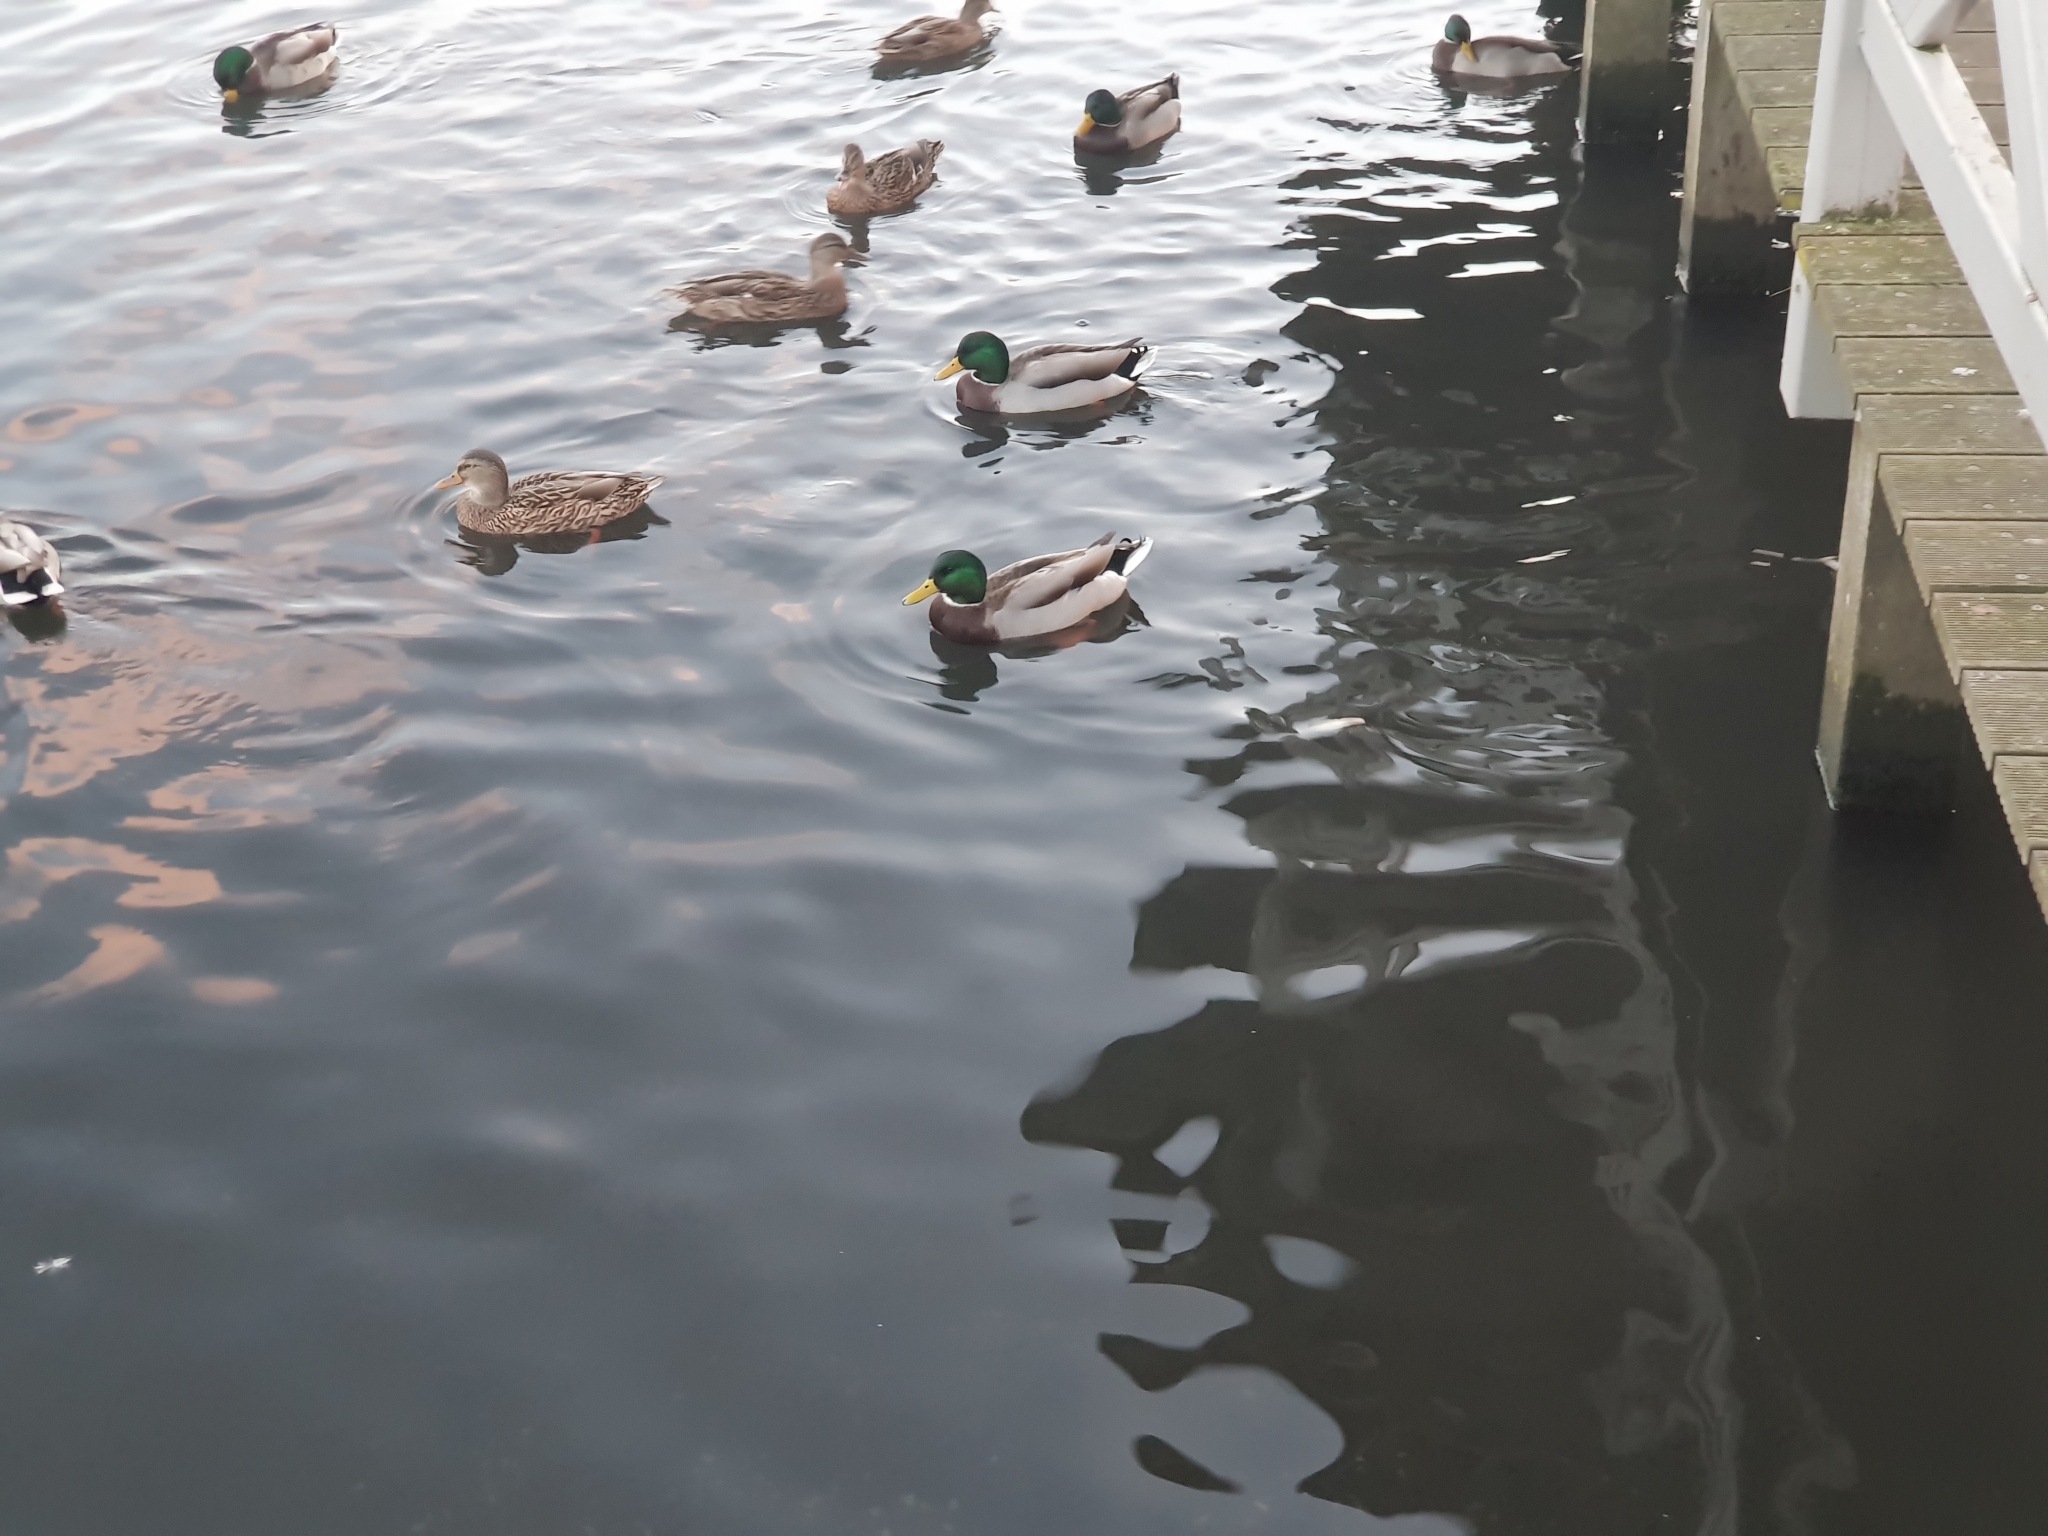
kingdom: Animalia
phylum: Chordata
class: Aves
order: Anseriformes
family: Anatidae
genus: Anas
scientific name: Anas platyrhynchos
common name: Mallard
